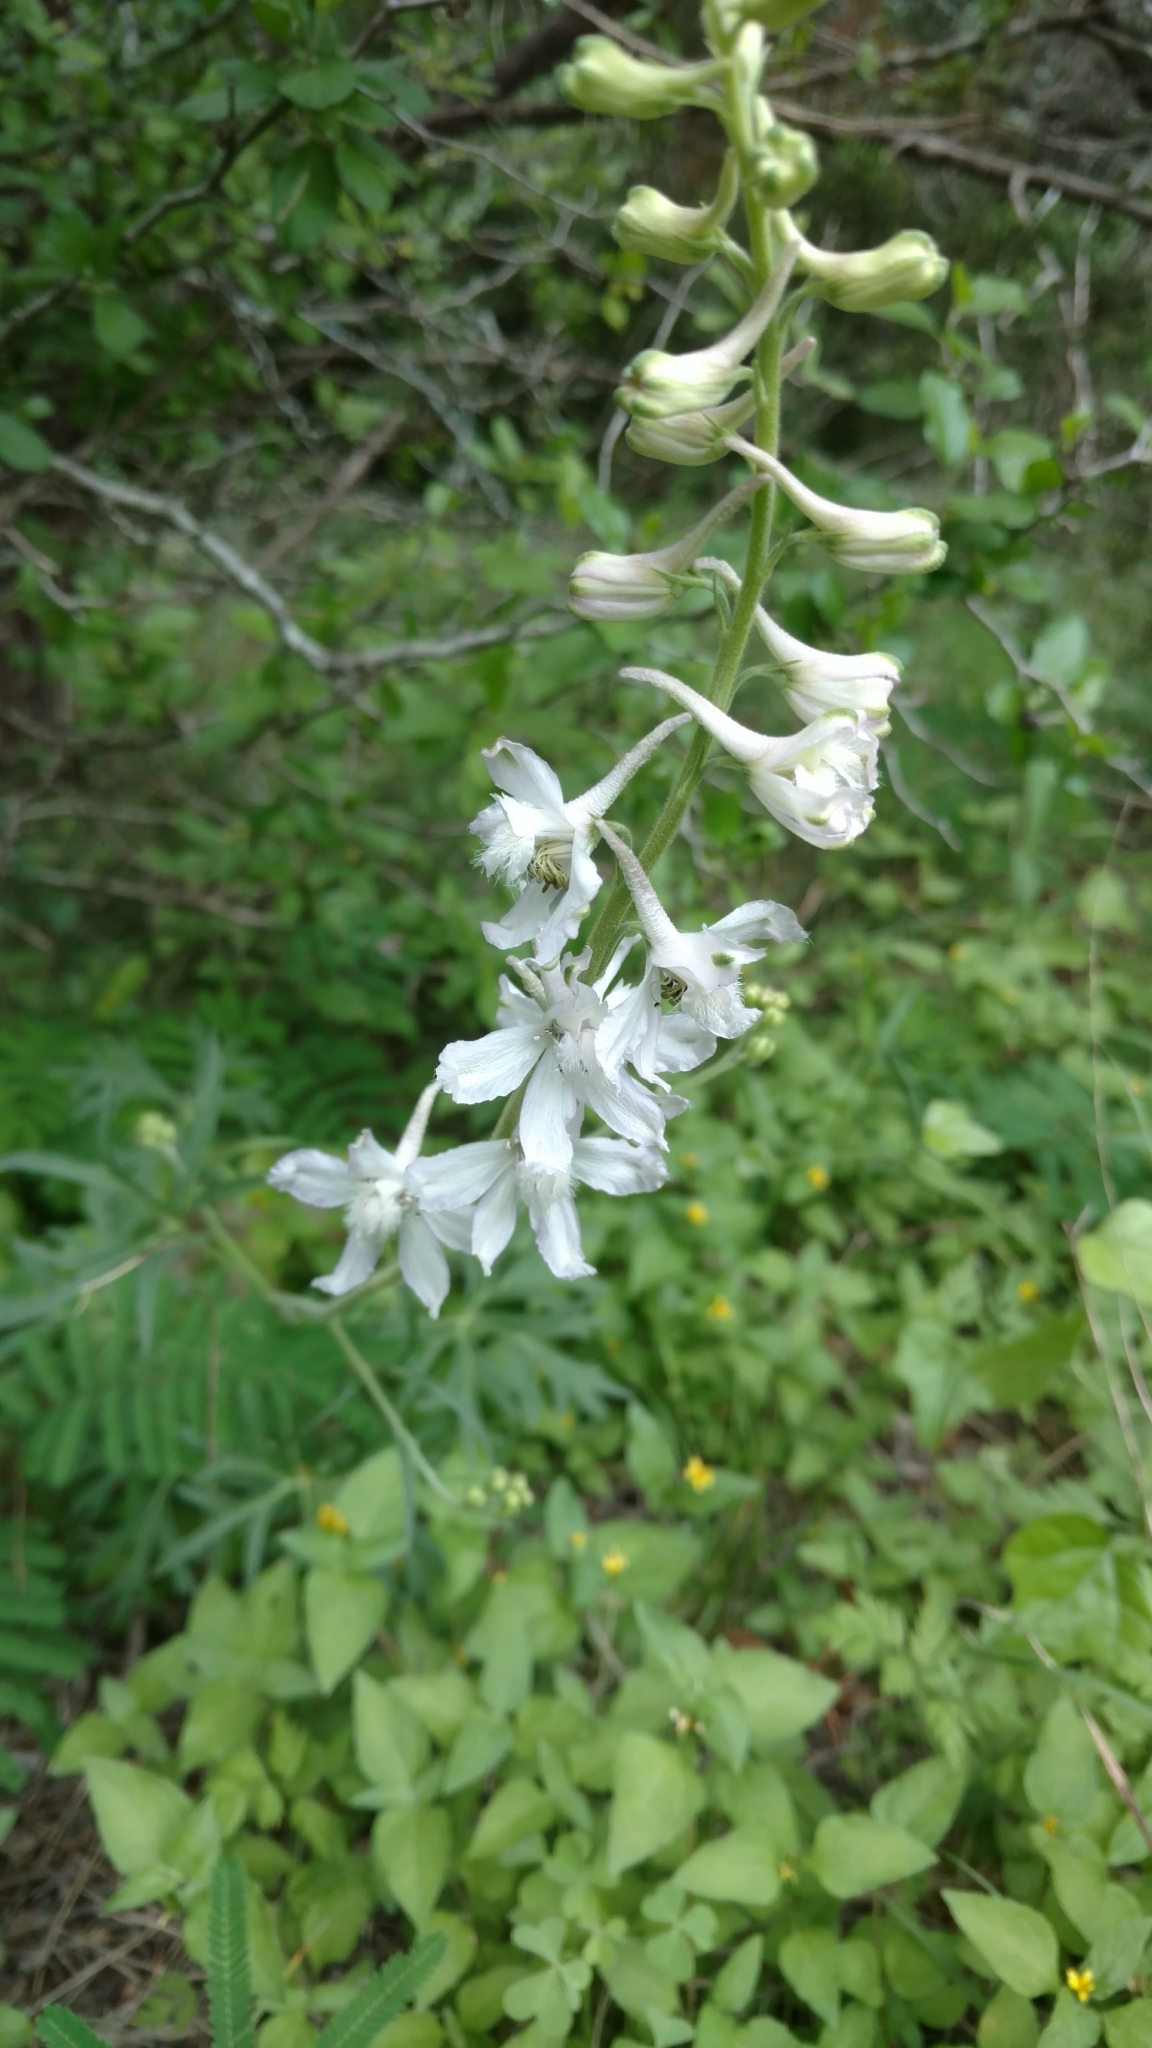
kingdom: Plantae
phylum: Tracheophyta
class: Magnoliopsida
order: Ranunculales
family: Ranunculaceae
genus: Delphinium
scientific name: Delphinium carolinianum
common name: Carolina larkspur
